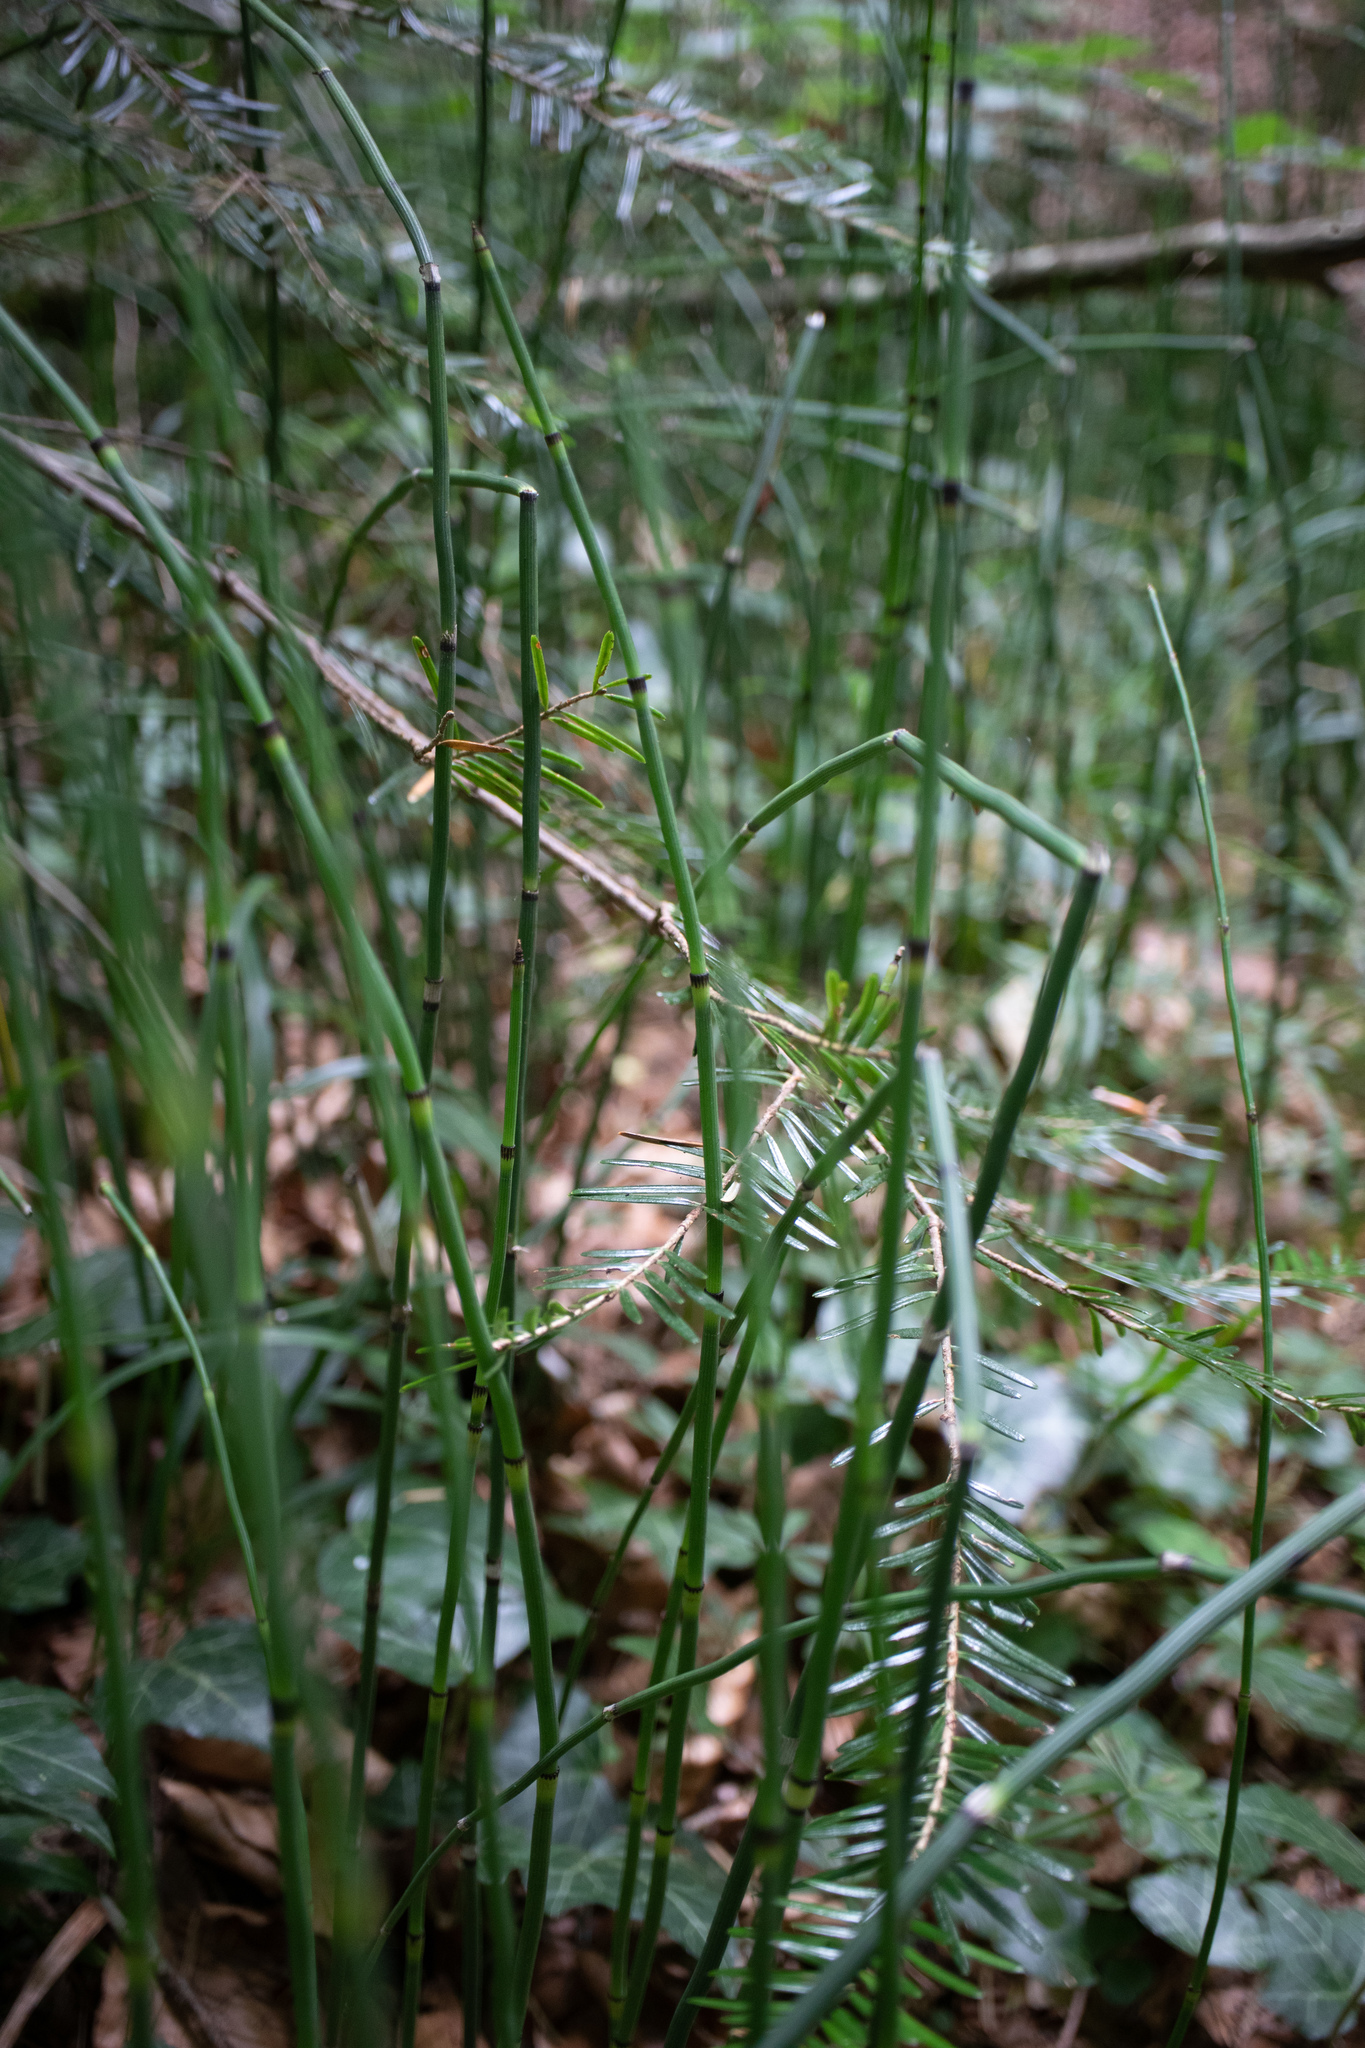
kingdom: Plantae
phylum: Tracheophyta
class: Polypodiopsida
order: Equisetales
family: Equisetaceae
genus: Equisetum
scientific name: Equisetum hyemale
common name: Rough horsetail
